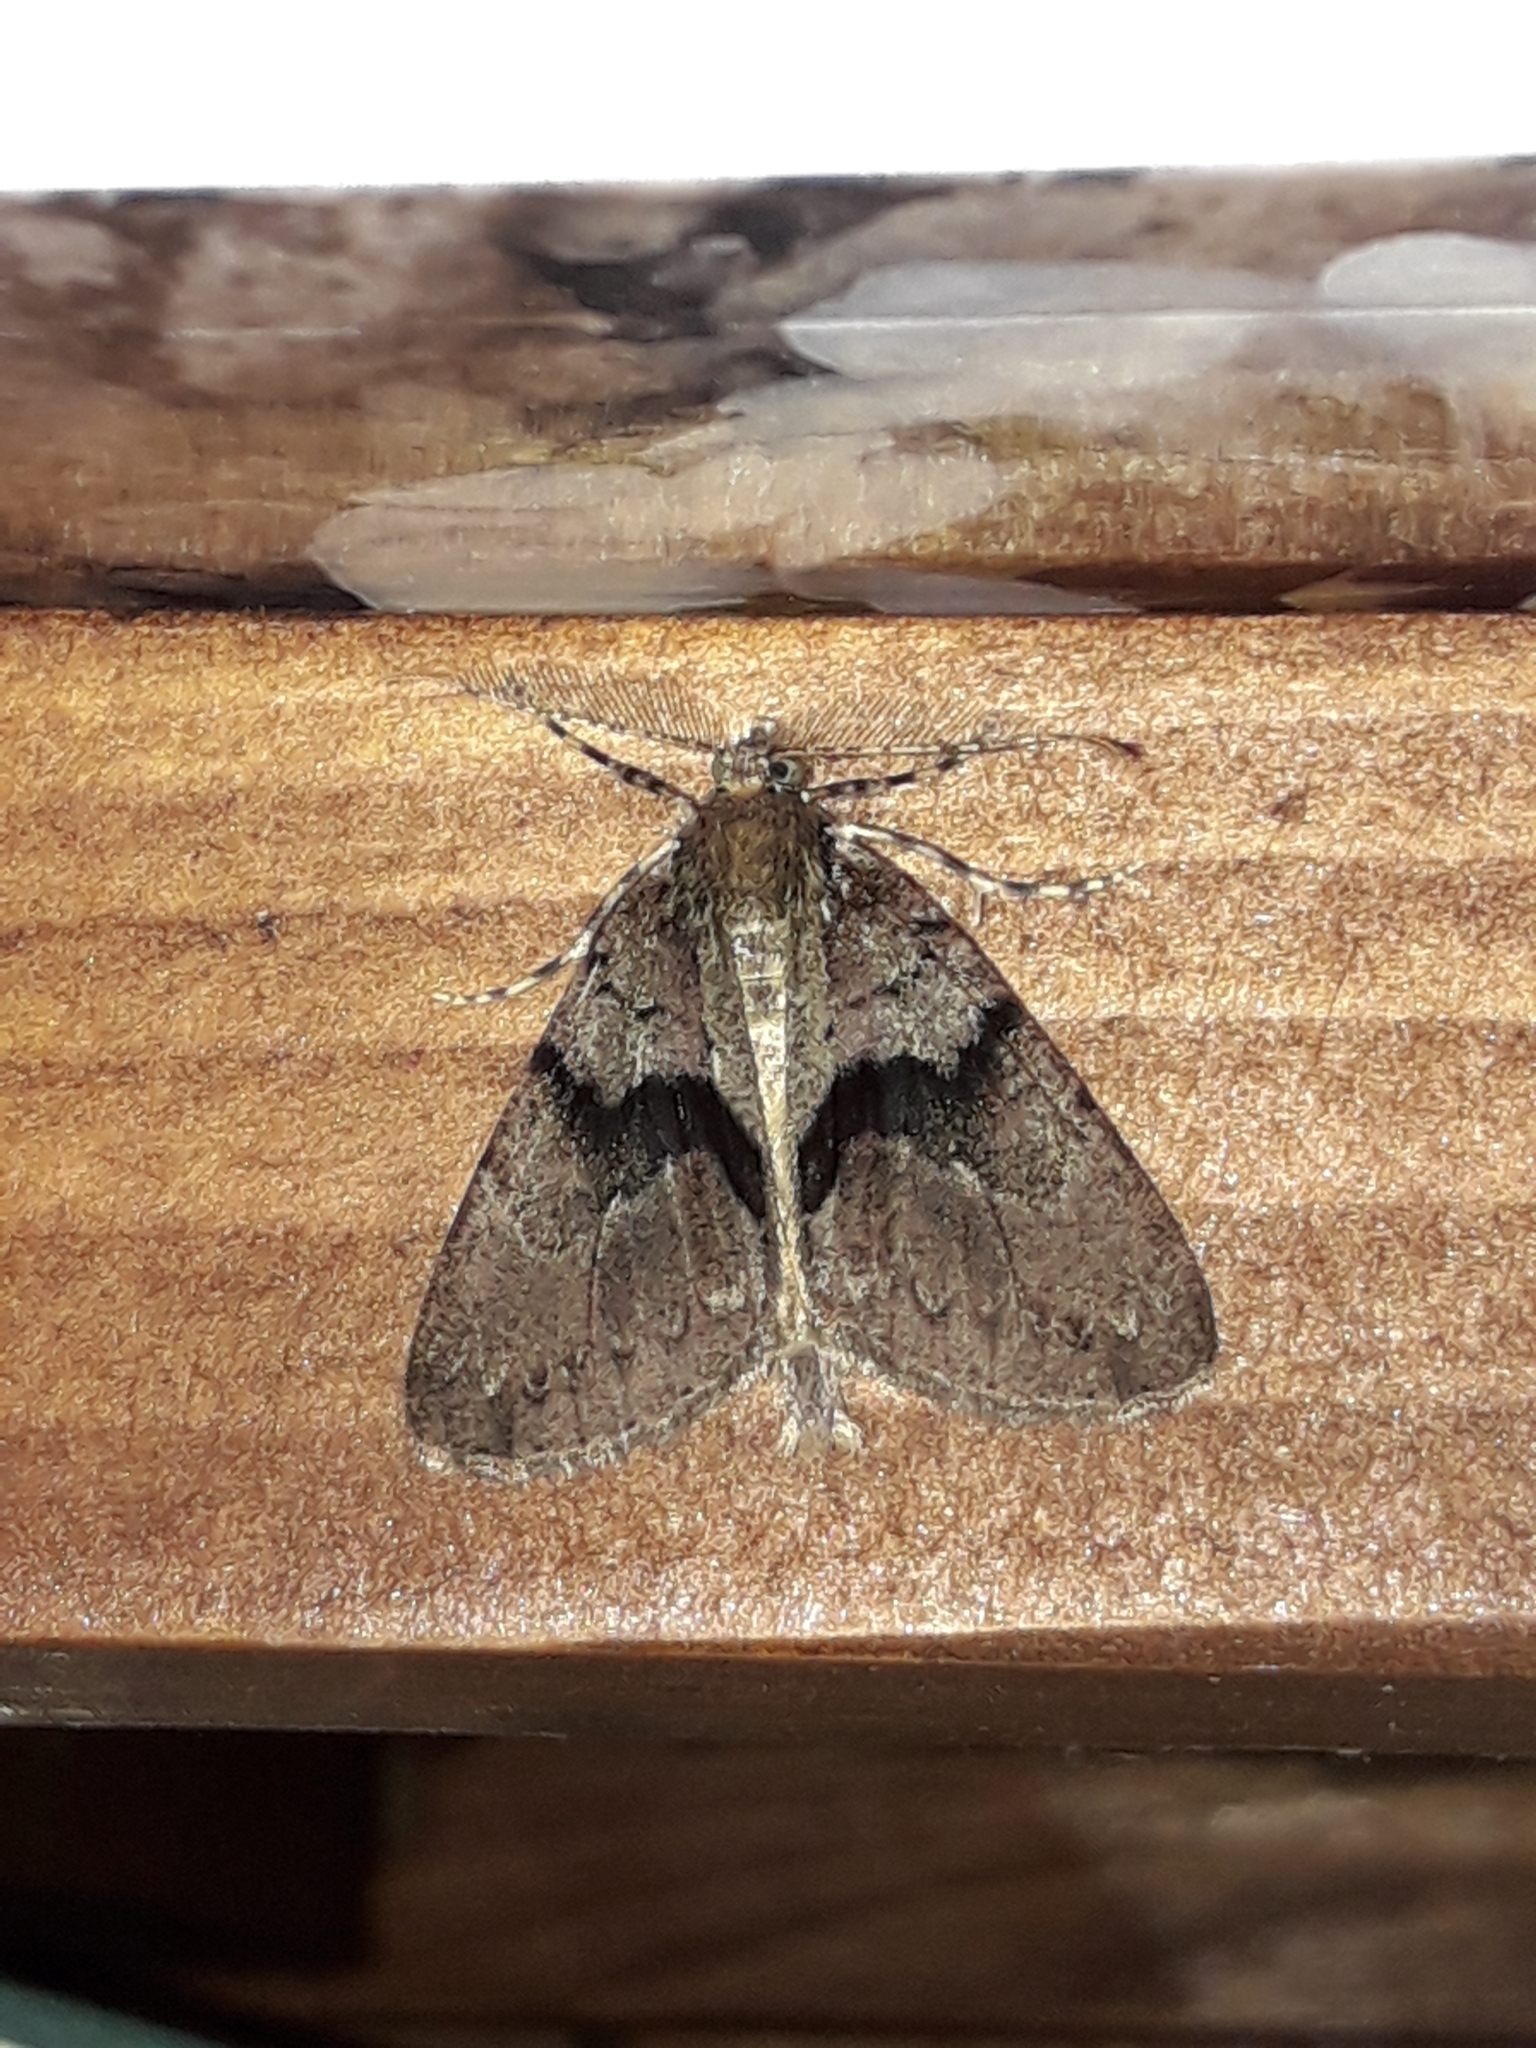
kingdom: Animalia
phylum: Arthropoda
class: Insecta
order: Lepidoptera
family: Geometridae
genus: Pseudocoremia
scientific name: Pseudocoremia suavis
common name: Common forest looper
